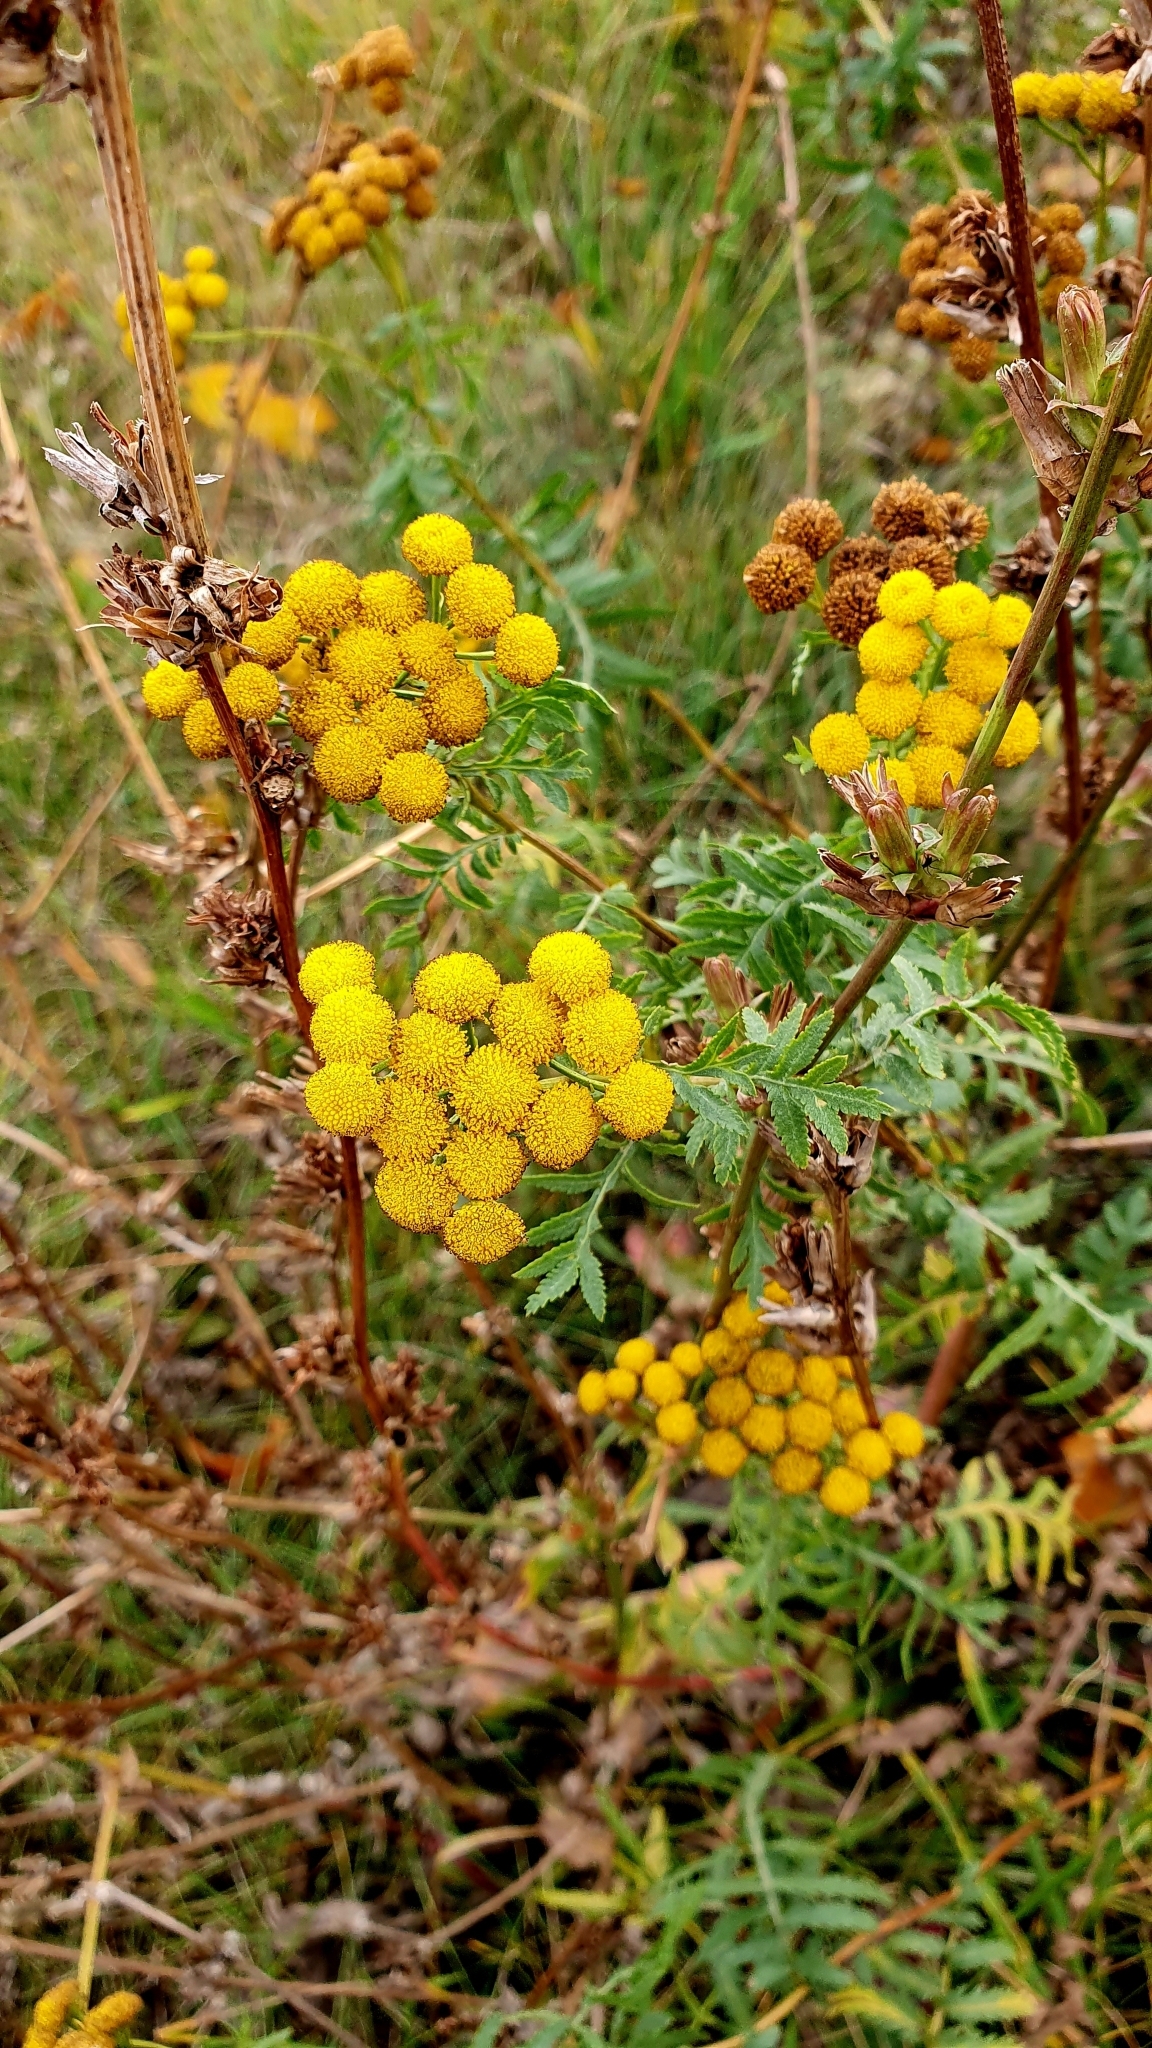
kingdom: Plantae
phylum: Tracheophyta
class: Magnoliopsida
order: Asterales
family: Asteraceae
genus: Tanacetum
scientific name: Tanacetum vulgare
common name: Common tansy
